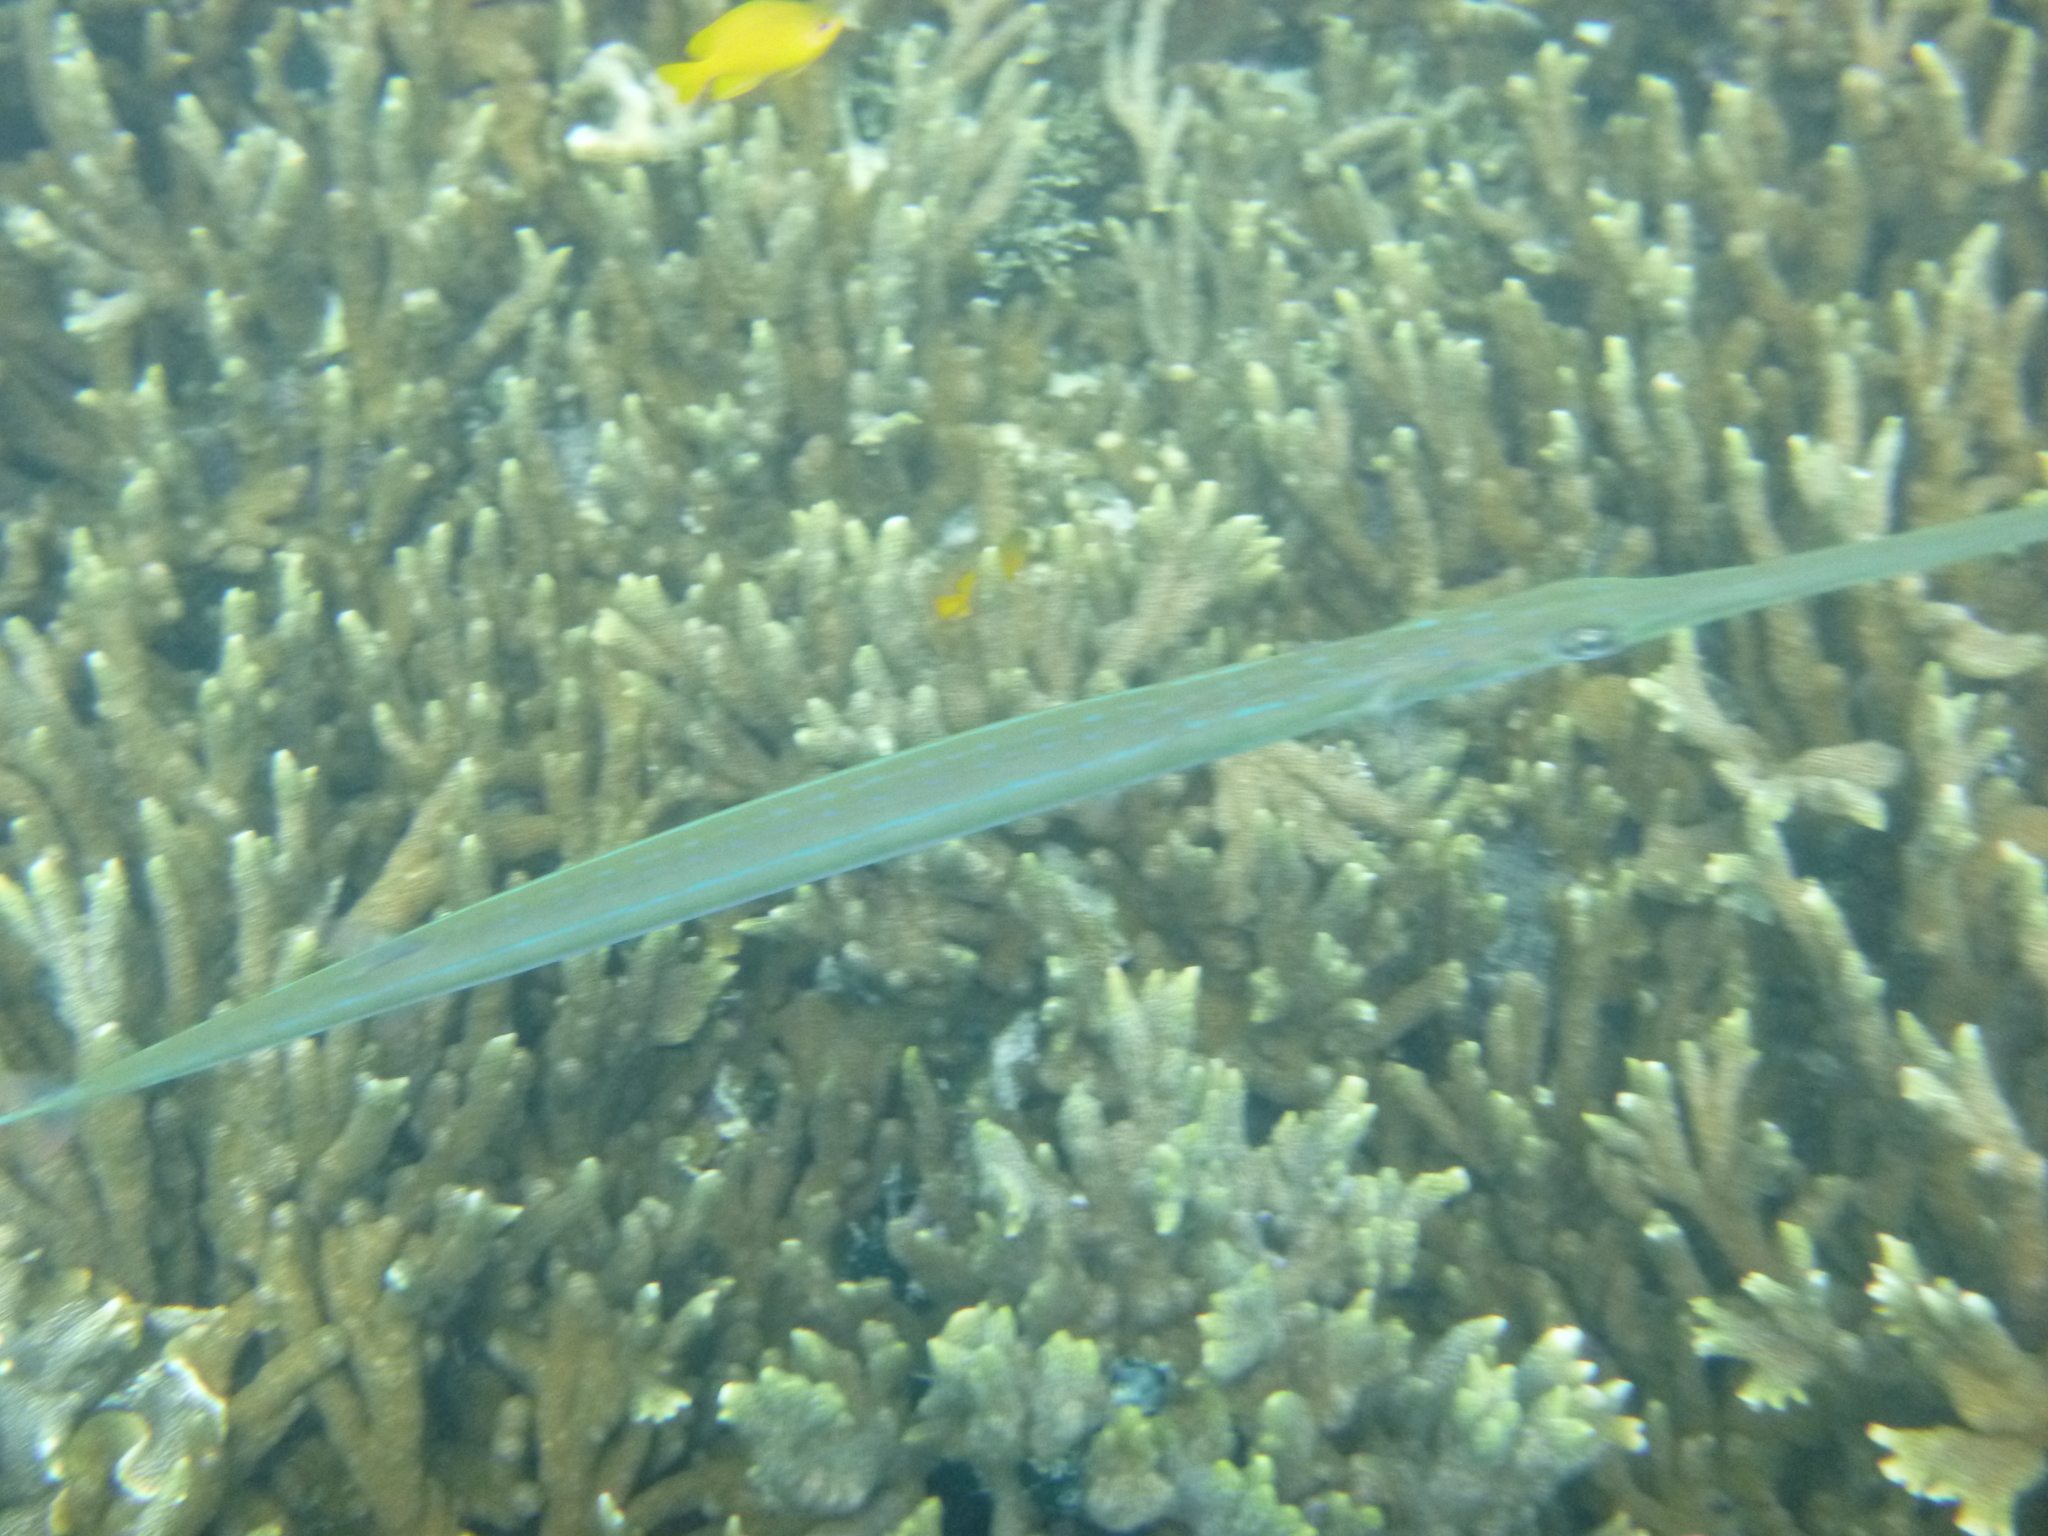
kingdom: Animalia
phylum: Chordata
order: Syngnathiformes
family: Fistulariidae
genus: Fistularia
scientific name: Fistularia commersonii
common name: Bluespotted cornetfish
